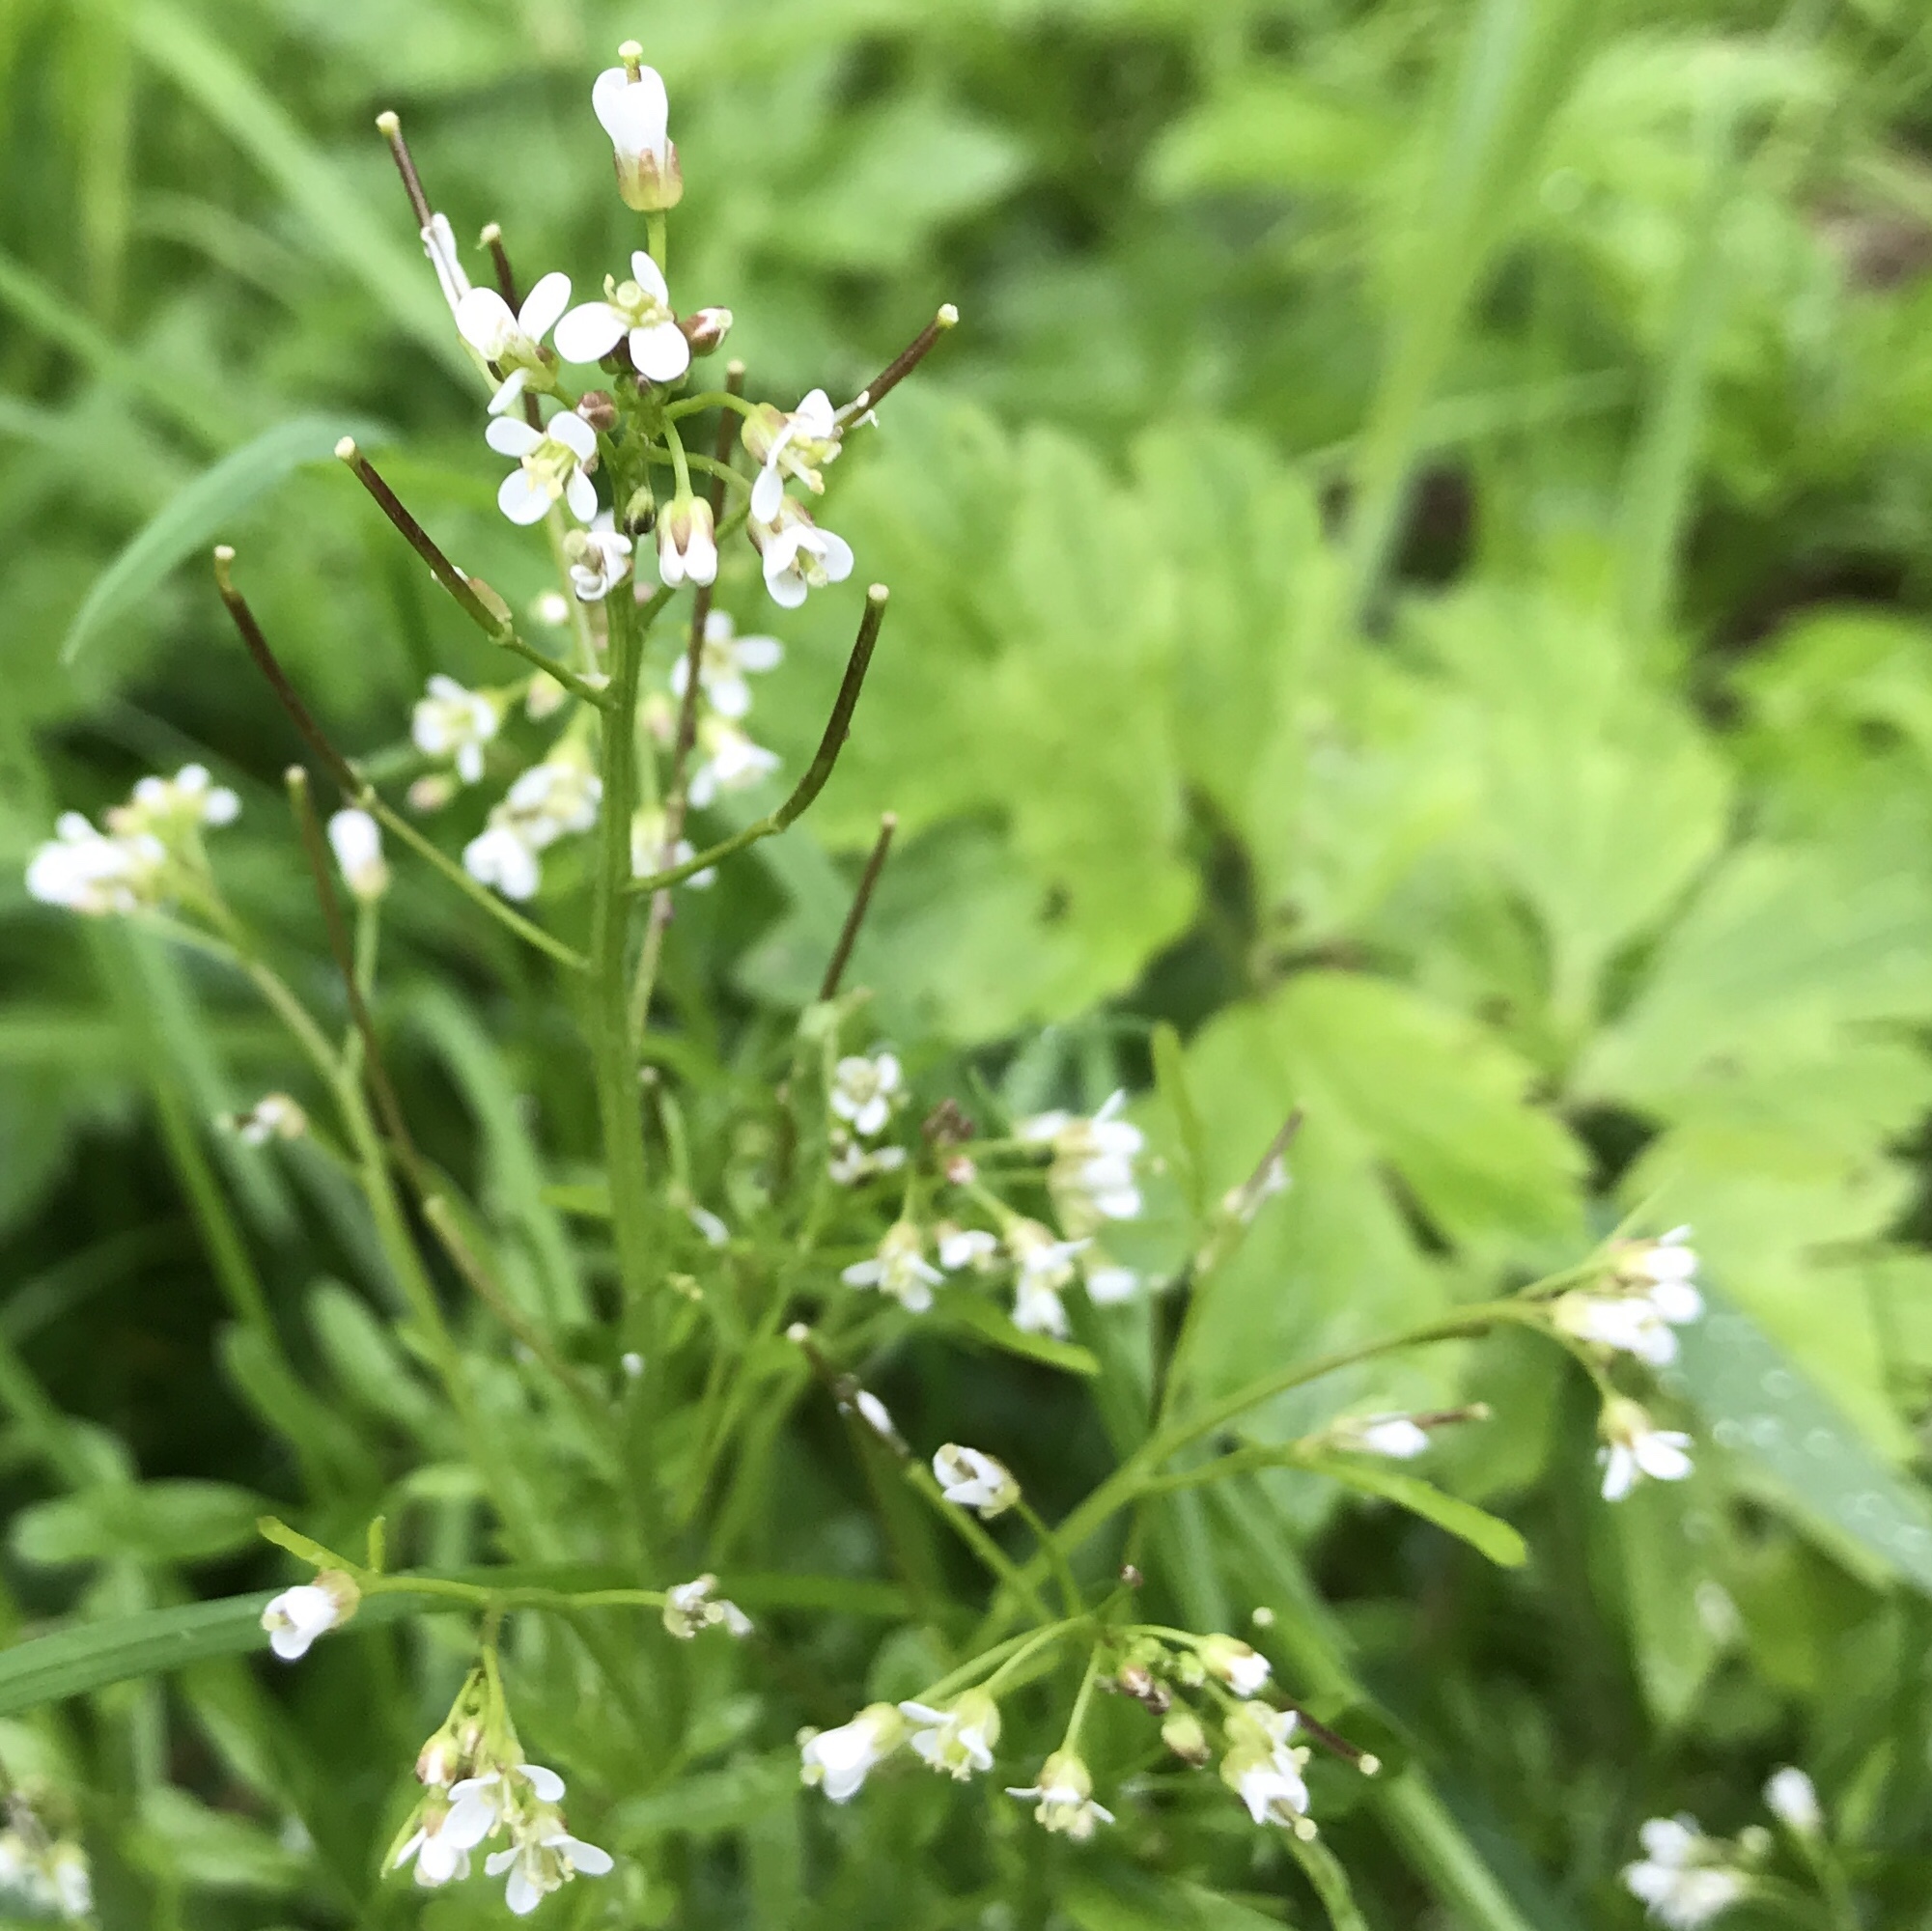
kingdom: Plantae
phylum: Tracheophyta
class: Magnoliopsida
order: Brassicales
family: Brassicaceae
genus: Cardamine
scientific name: Cardamine flexuosa
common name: Woodland bittercress
